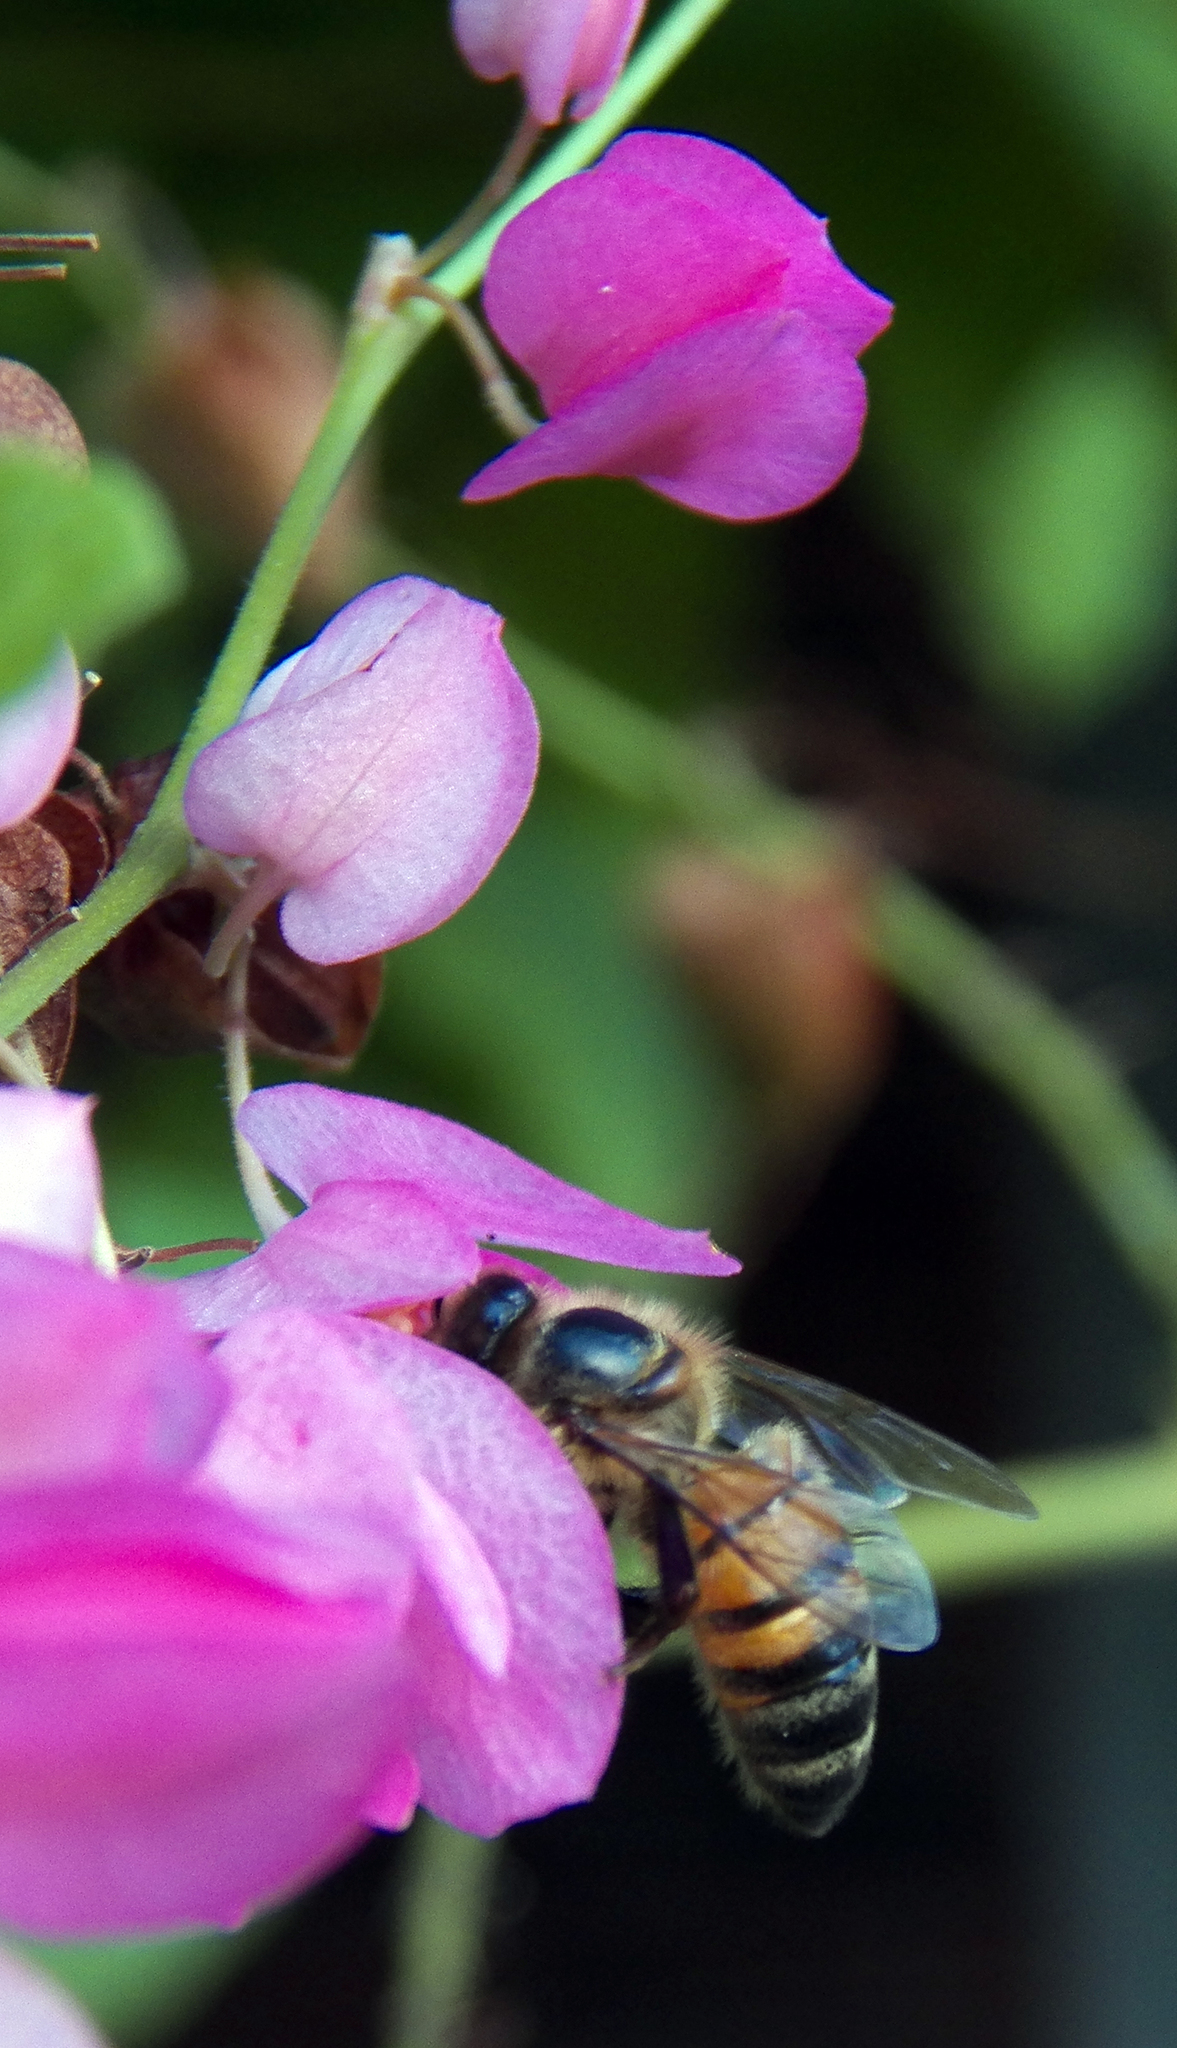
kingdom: Animalia
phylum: Arthropoda
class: Insecta
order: Hymenoptera
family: Apidae
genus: Apis
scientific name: Apis mellifera
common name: Honey bee
